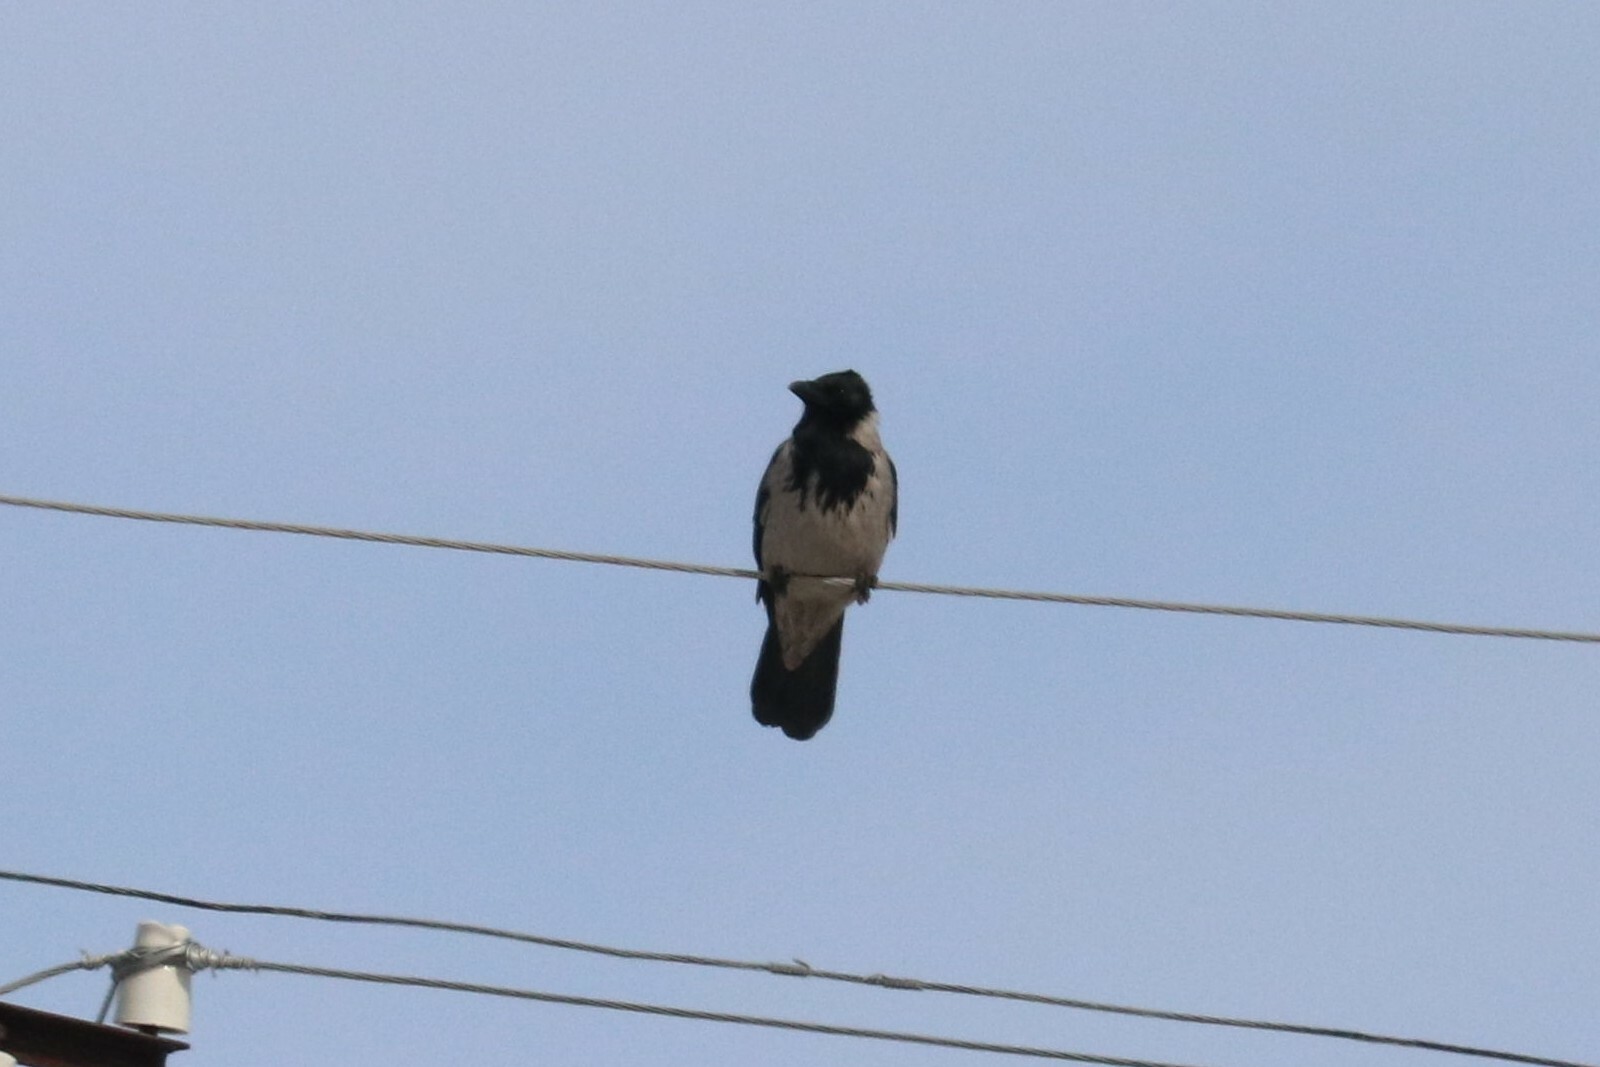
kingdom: Animalia
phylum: Chordata
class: Aves
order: Passeriformes
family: Corvidae
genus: Corvus
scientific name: Corvus cornix
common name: Hooded crow
